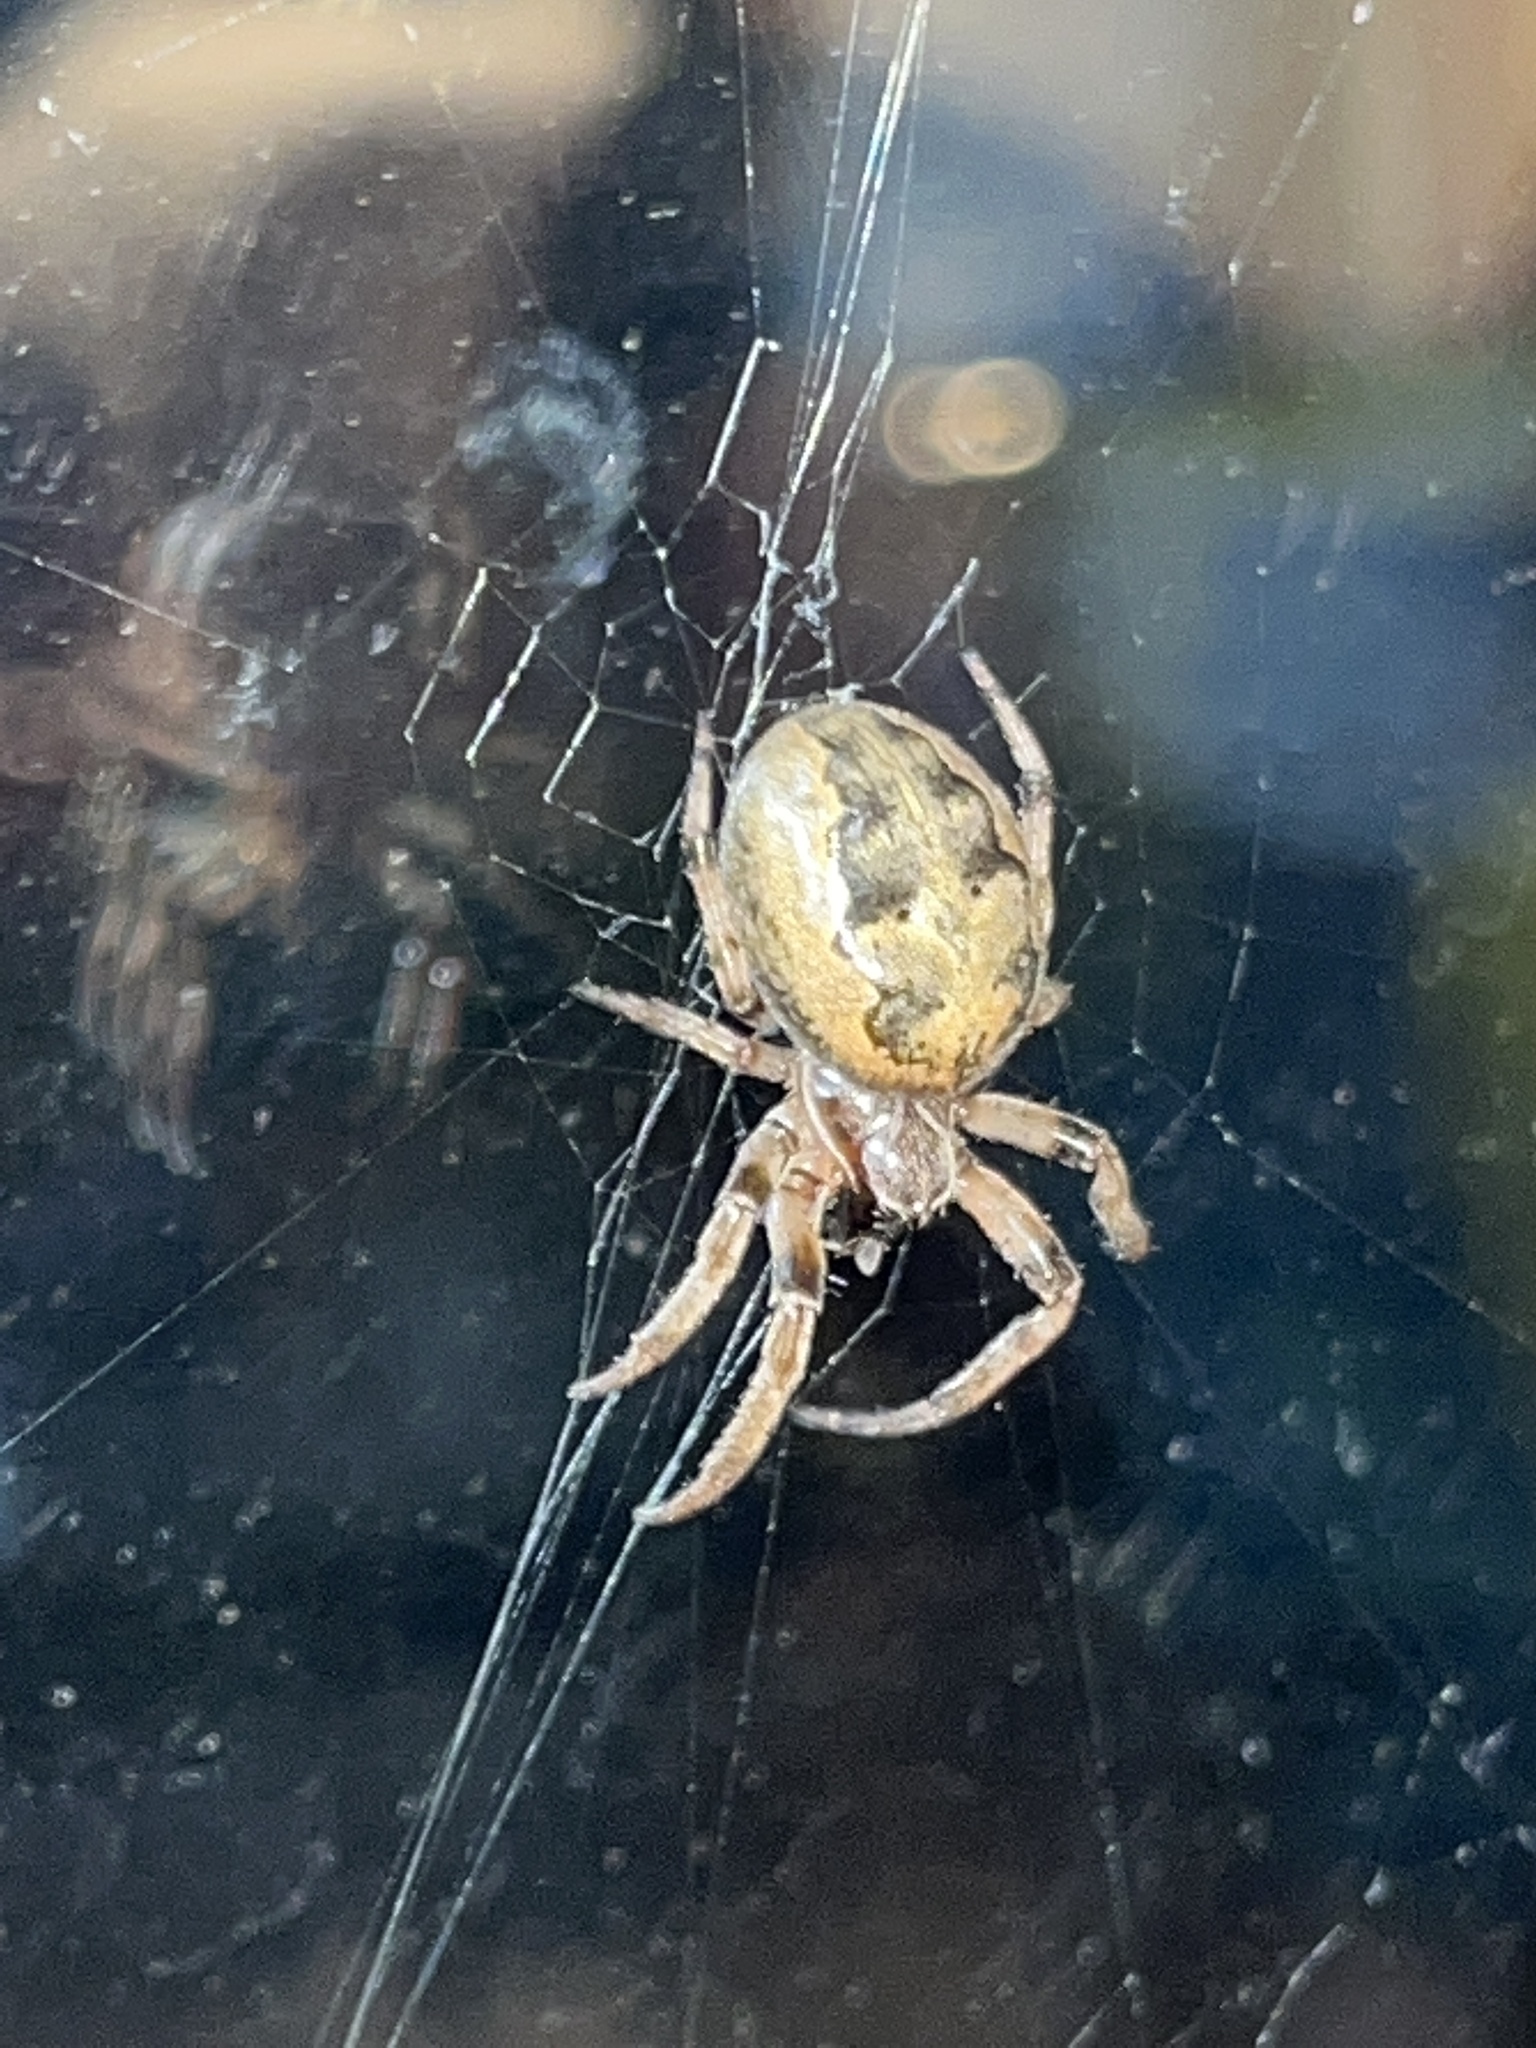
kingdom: Animalia
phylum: Arthropoda
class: Arachnida
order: Araneae
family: Araneidae
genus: Larinioides
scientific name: Larinioides cornutus
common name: Furrow orbweaver
